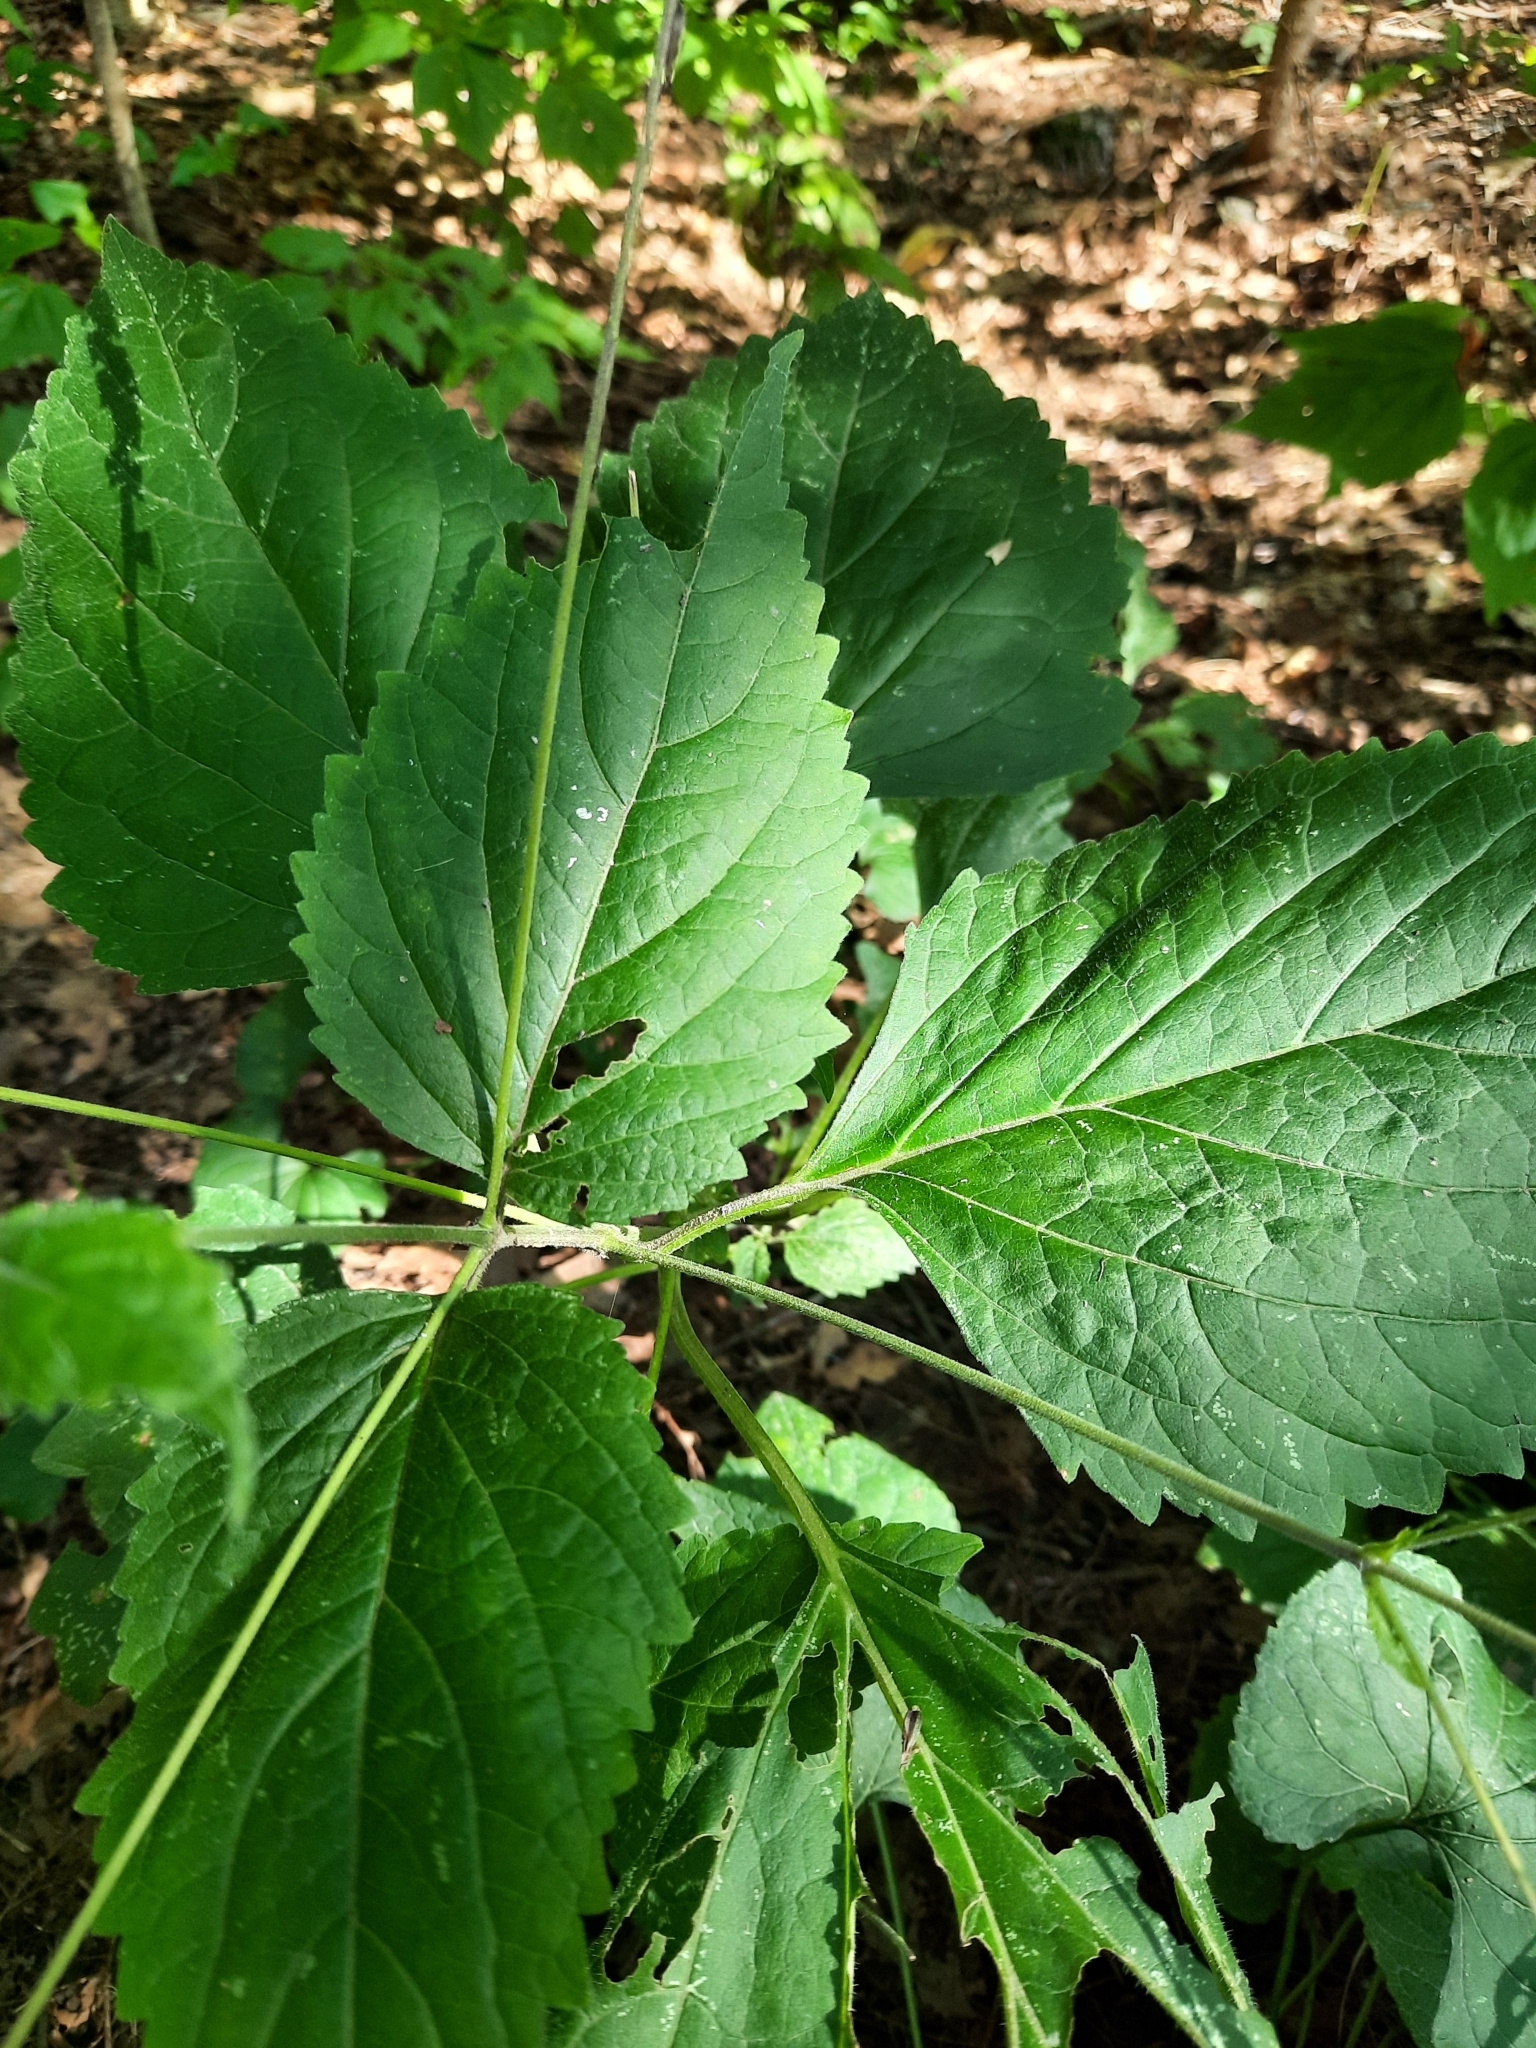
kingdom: Plantae
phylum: Tracheophyta
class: Magnoliopsida
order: Lamiales
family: Phrymaceae
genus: Phryma
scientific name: Phryma leptostachya
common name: American lopseed
